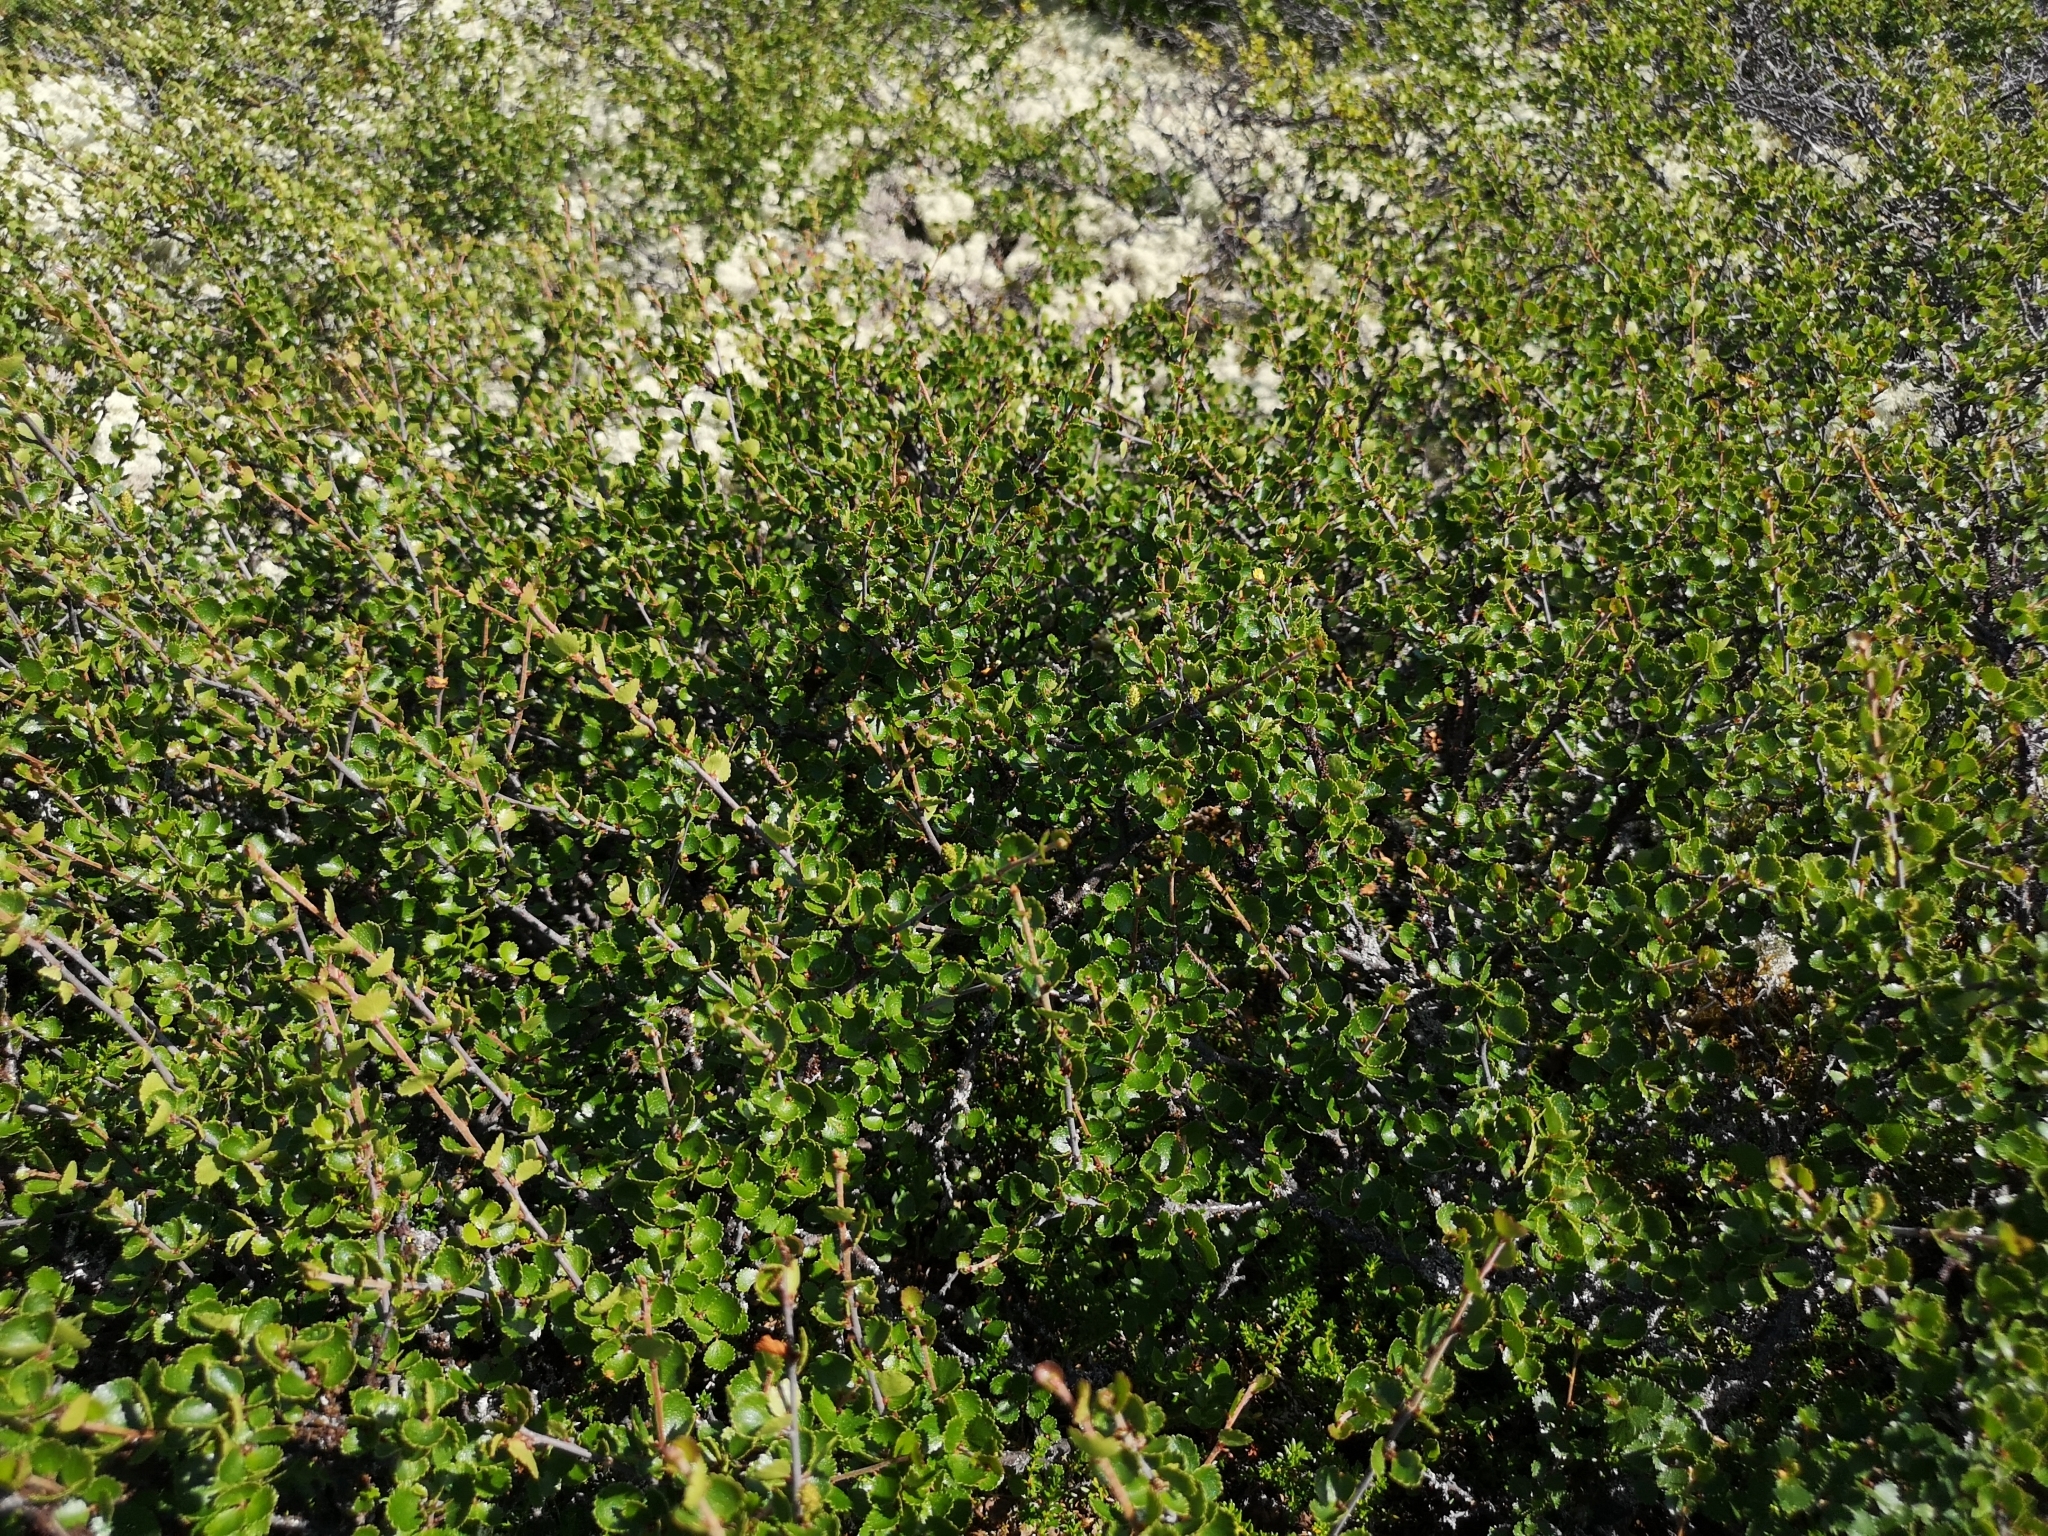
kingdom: Plantae
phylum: Tracheophyta
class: Magnoliopsida
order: Fagales
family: Betulaceae
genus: Betula
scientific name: Betula nana
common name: Arctic dwarf birch
